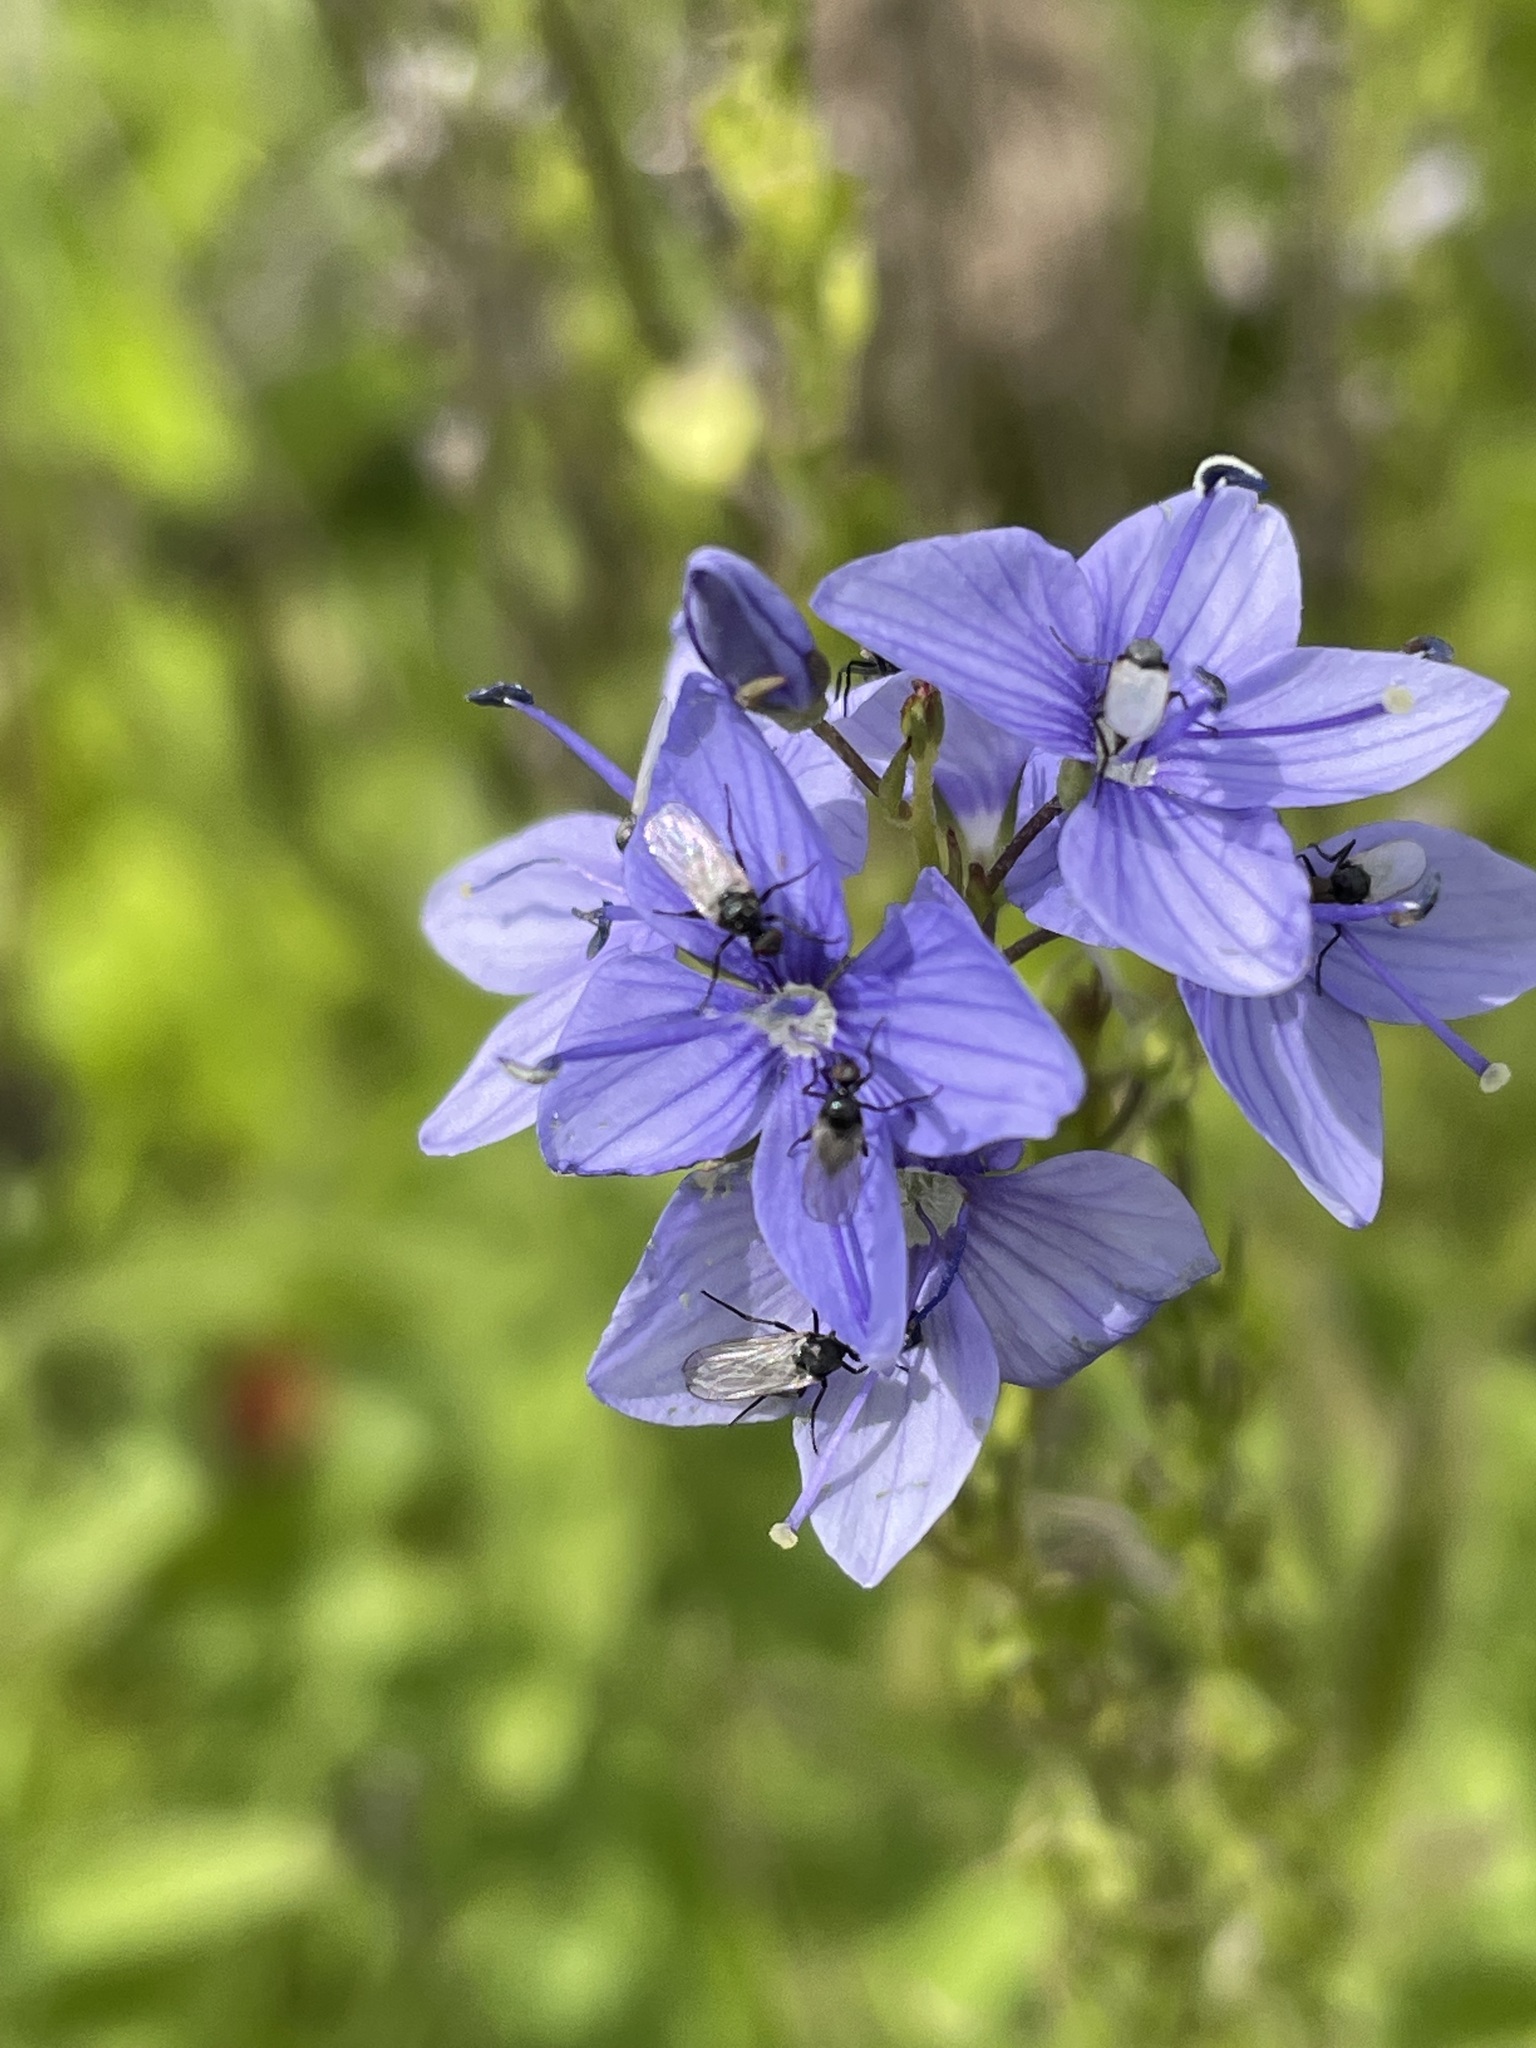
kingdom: Plantae
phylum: Tracheophyta
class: Magnoliopsida
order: Lamiales
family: Plantaginaceae
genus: Veronica
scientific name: Veronica teucrium
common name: Large speedwell
